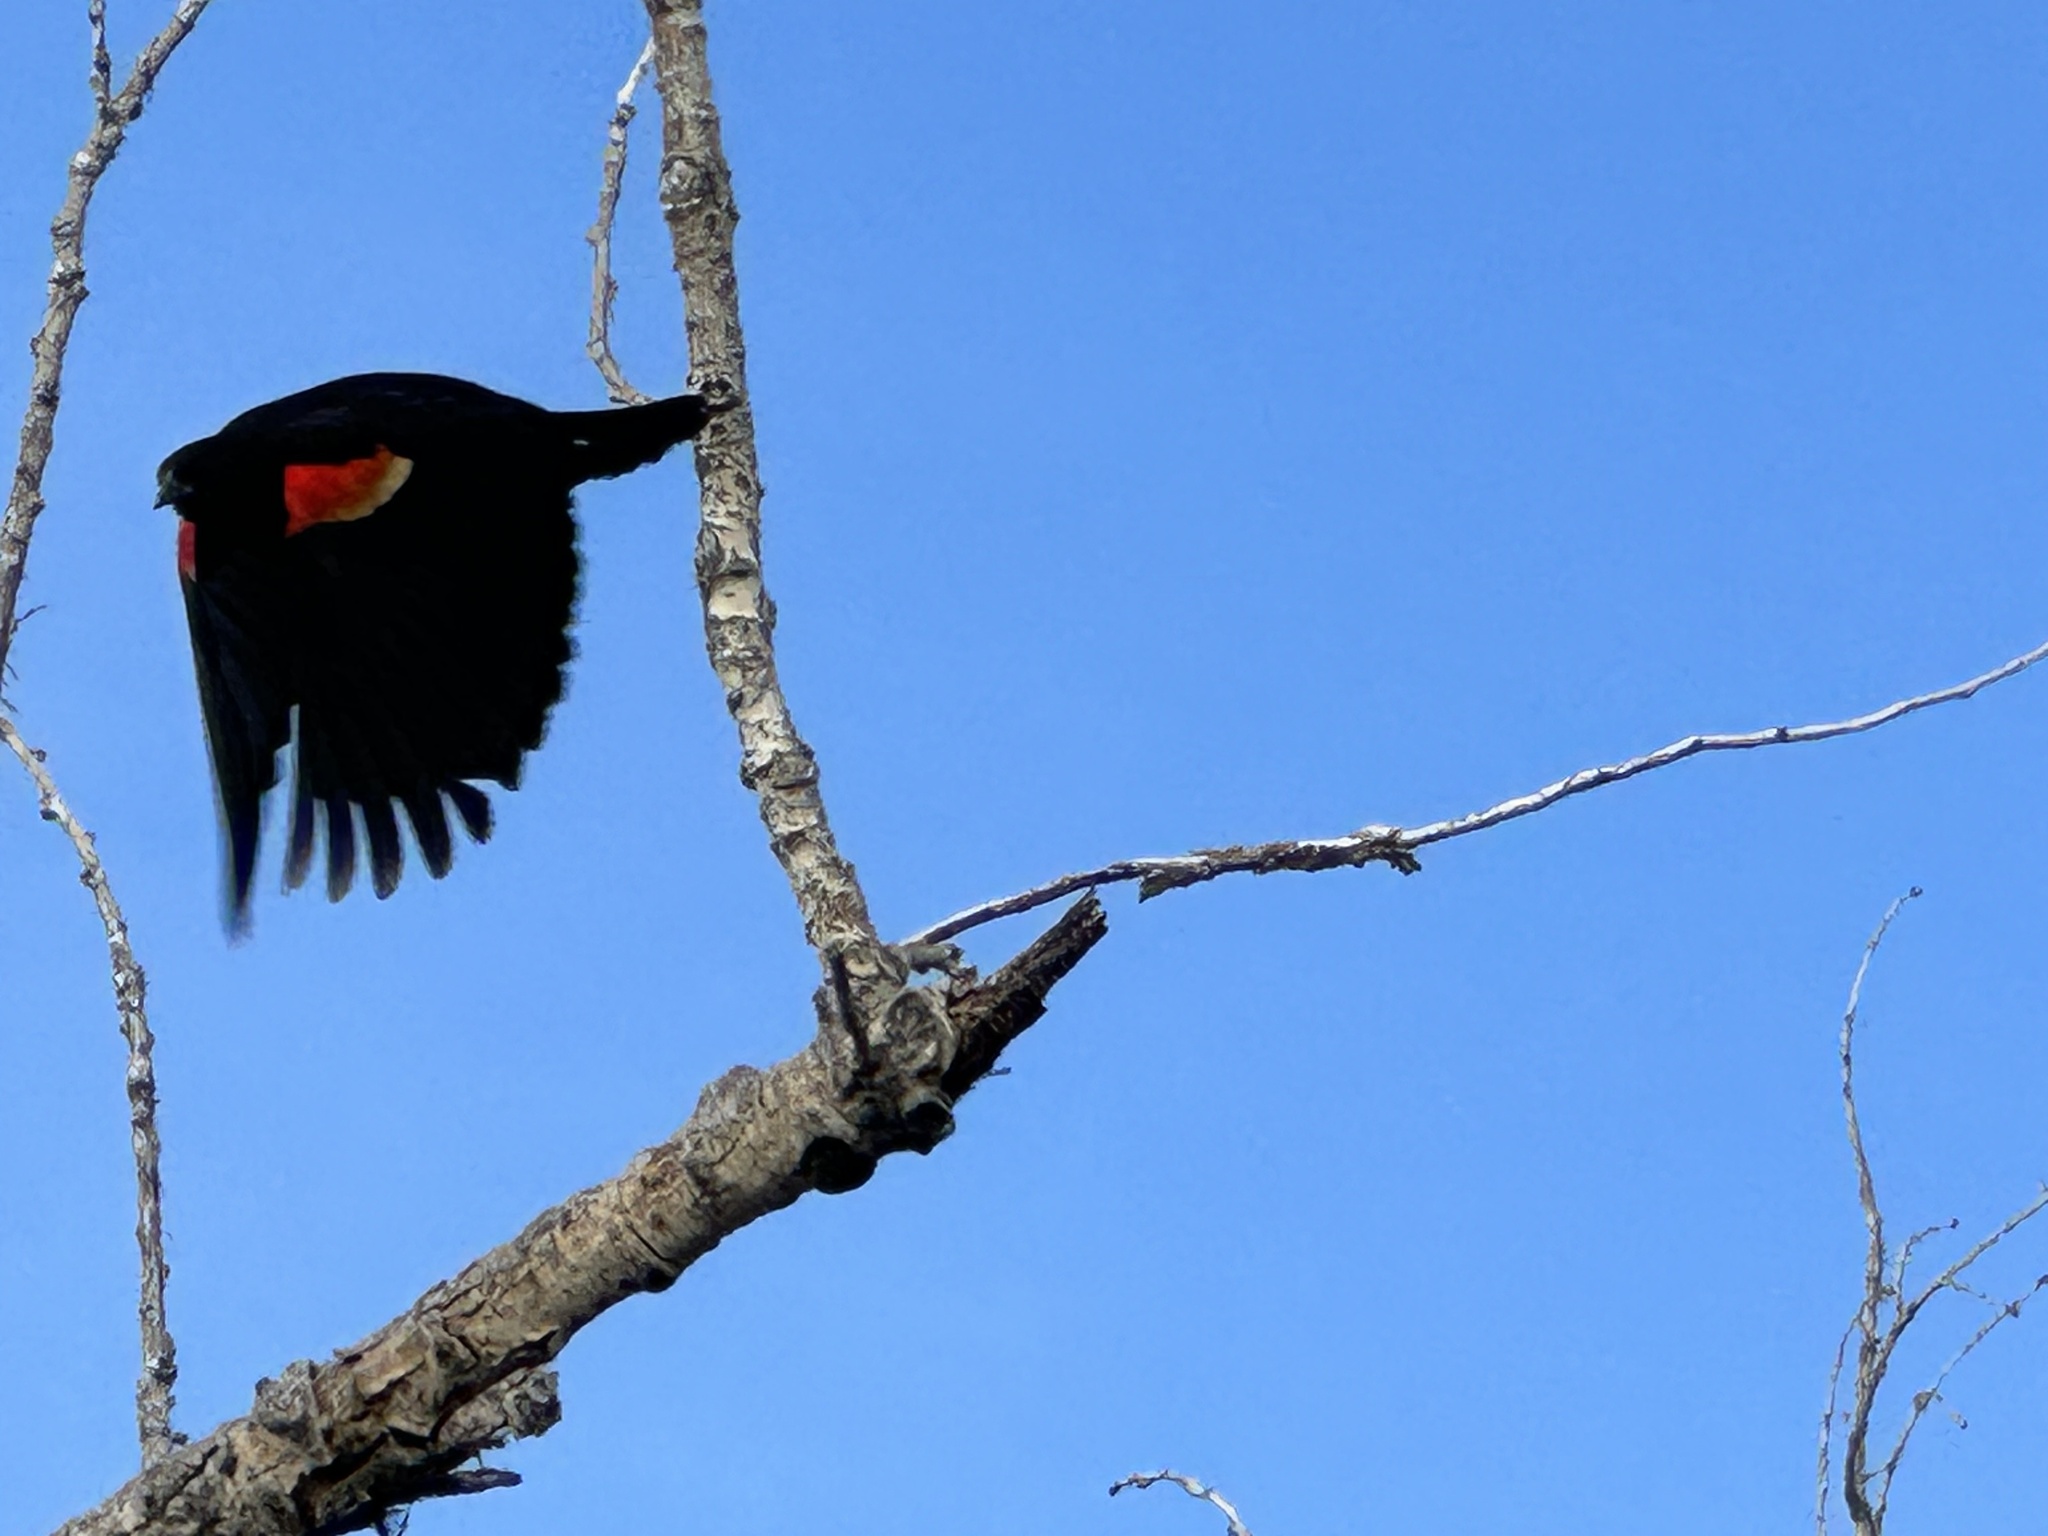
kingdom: Animalia
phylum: Chordata
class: Aves
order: Passeriformes
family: Icteridae
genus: Agelaius
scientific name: Agelaius phoeniceus
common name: Red-winged blackbird
